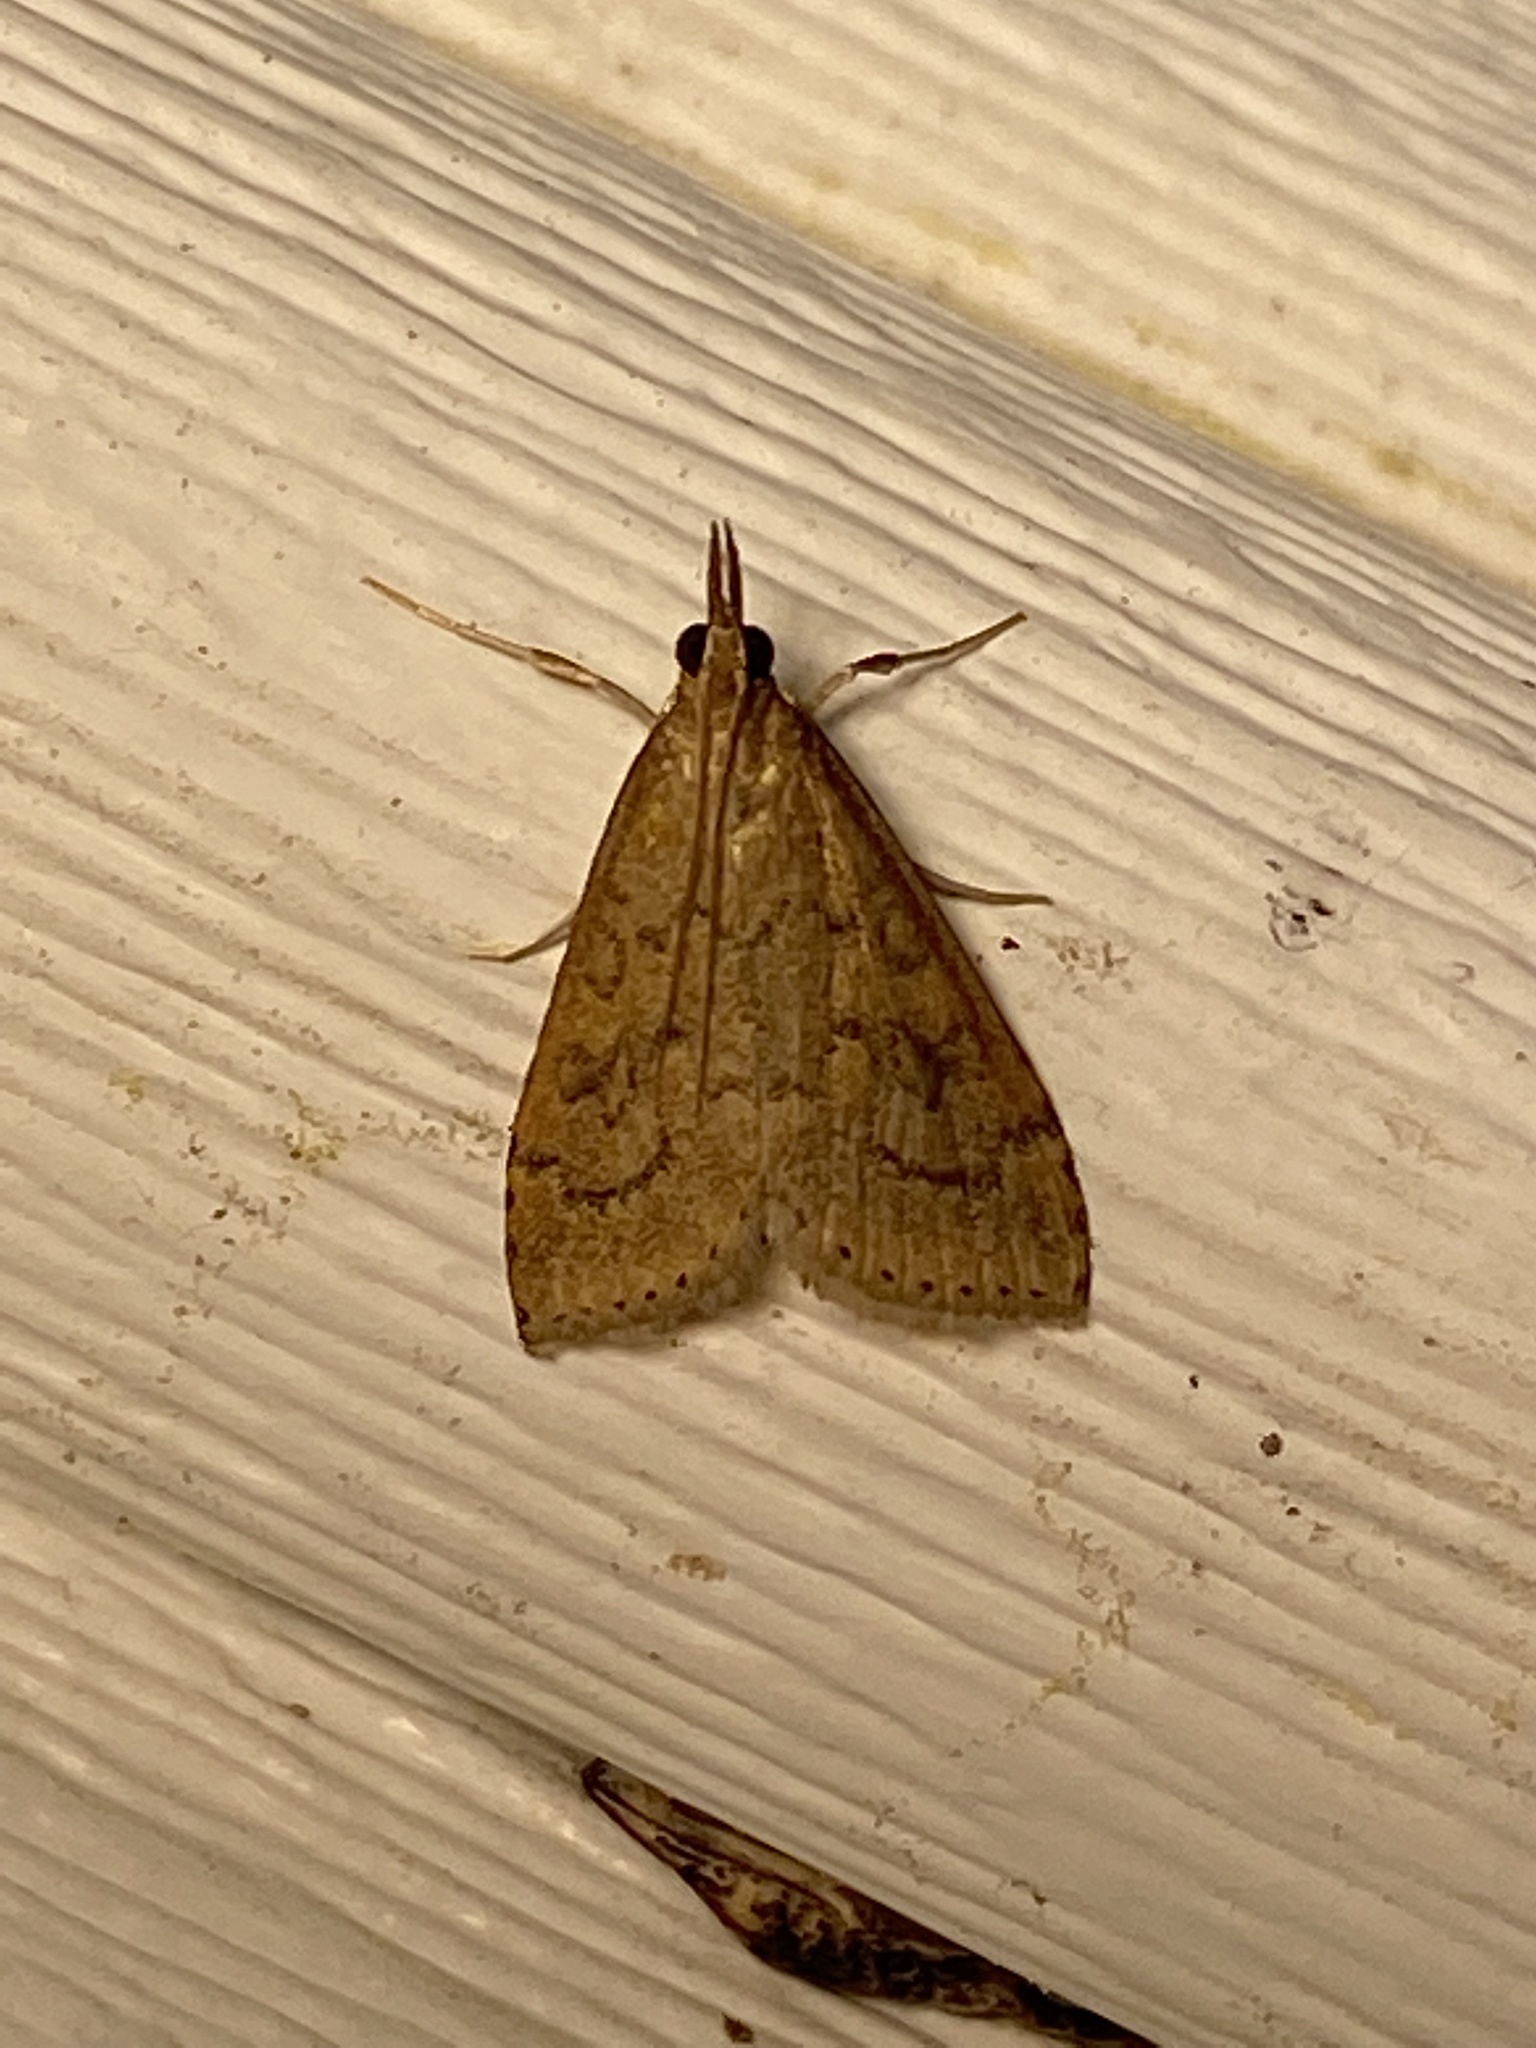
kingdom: Animalia
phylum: Arthropoda
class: Insecta
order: Lepidoptera
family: Crambidae
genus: Udea
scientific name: Udea rubigalis
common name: Celery leaftier moth
